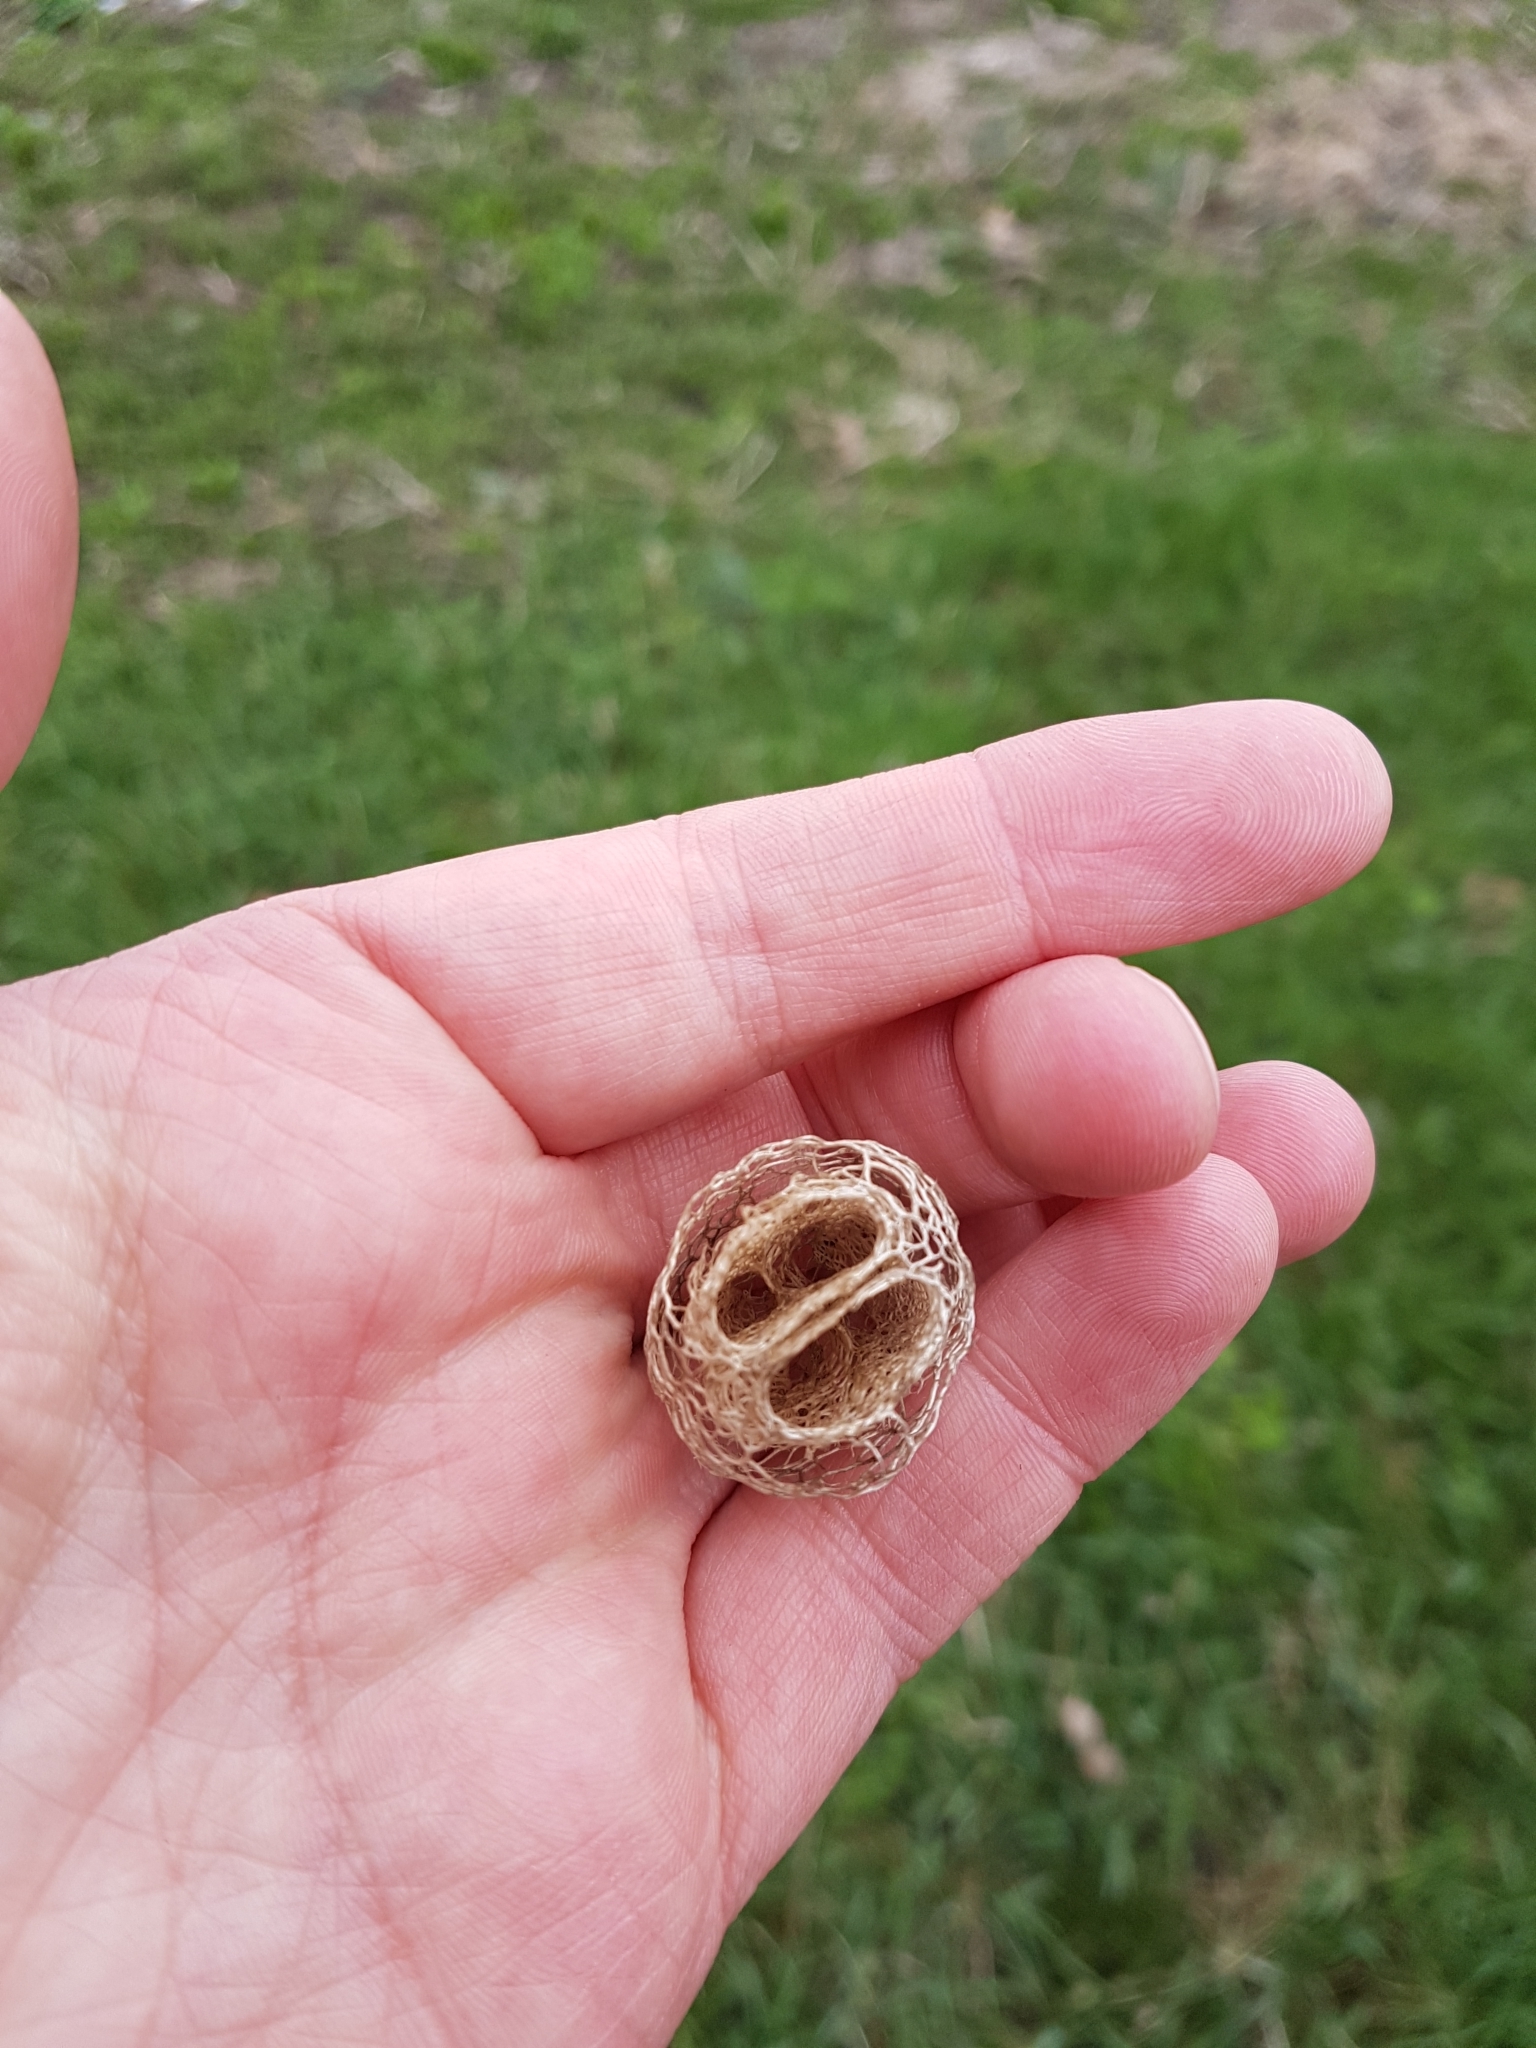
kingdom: Plantae
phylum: Tracheophyta
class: Magnoliopsida
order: Cucurbitales
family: Cucurbitaceae
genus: Echinocystis
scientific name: Echinocystis lobata
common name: Wild cucumber
